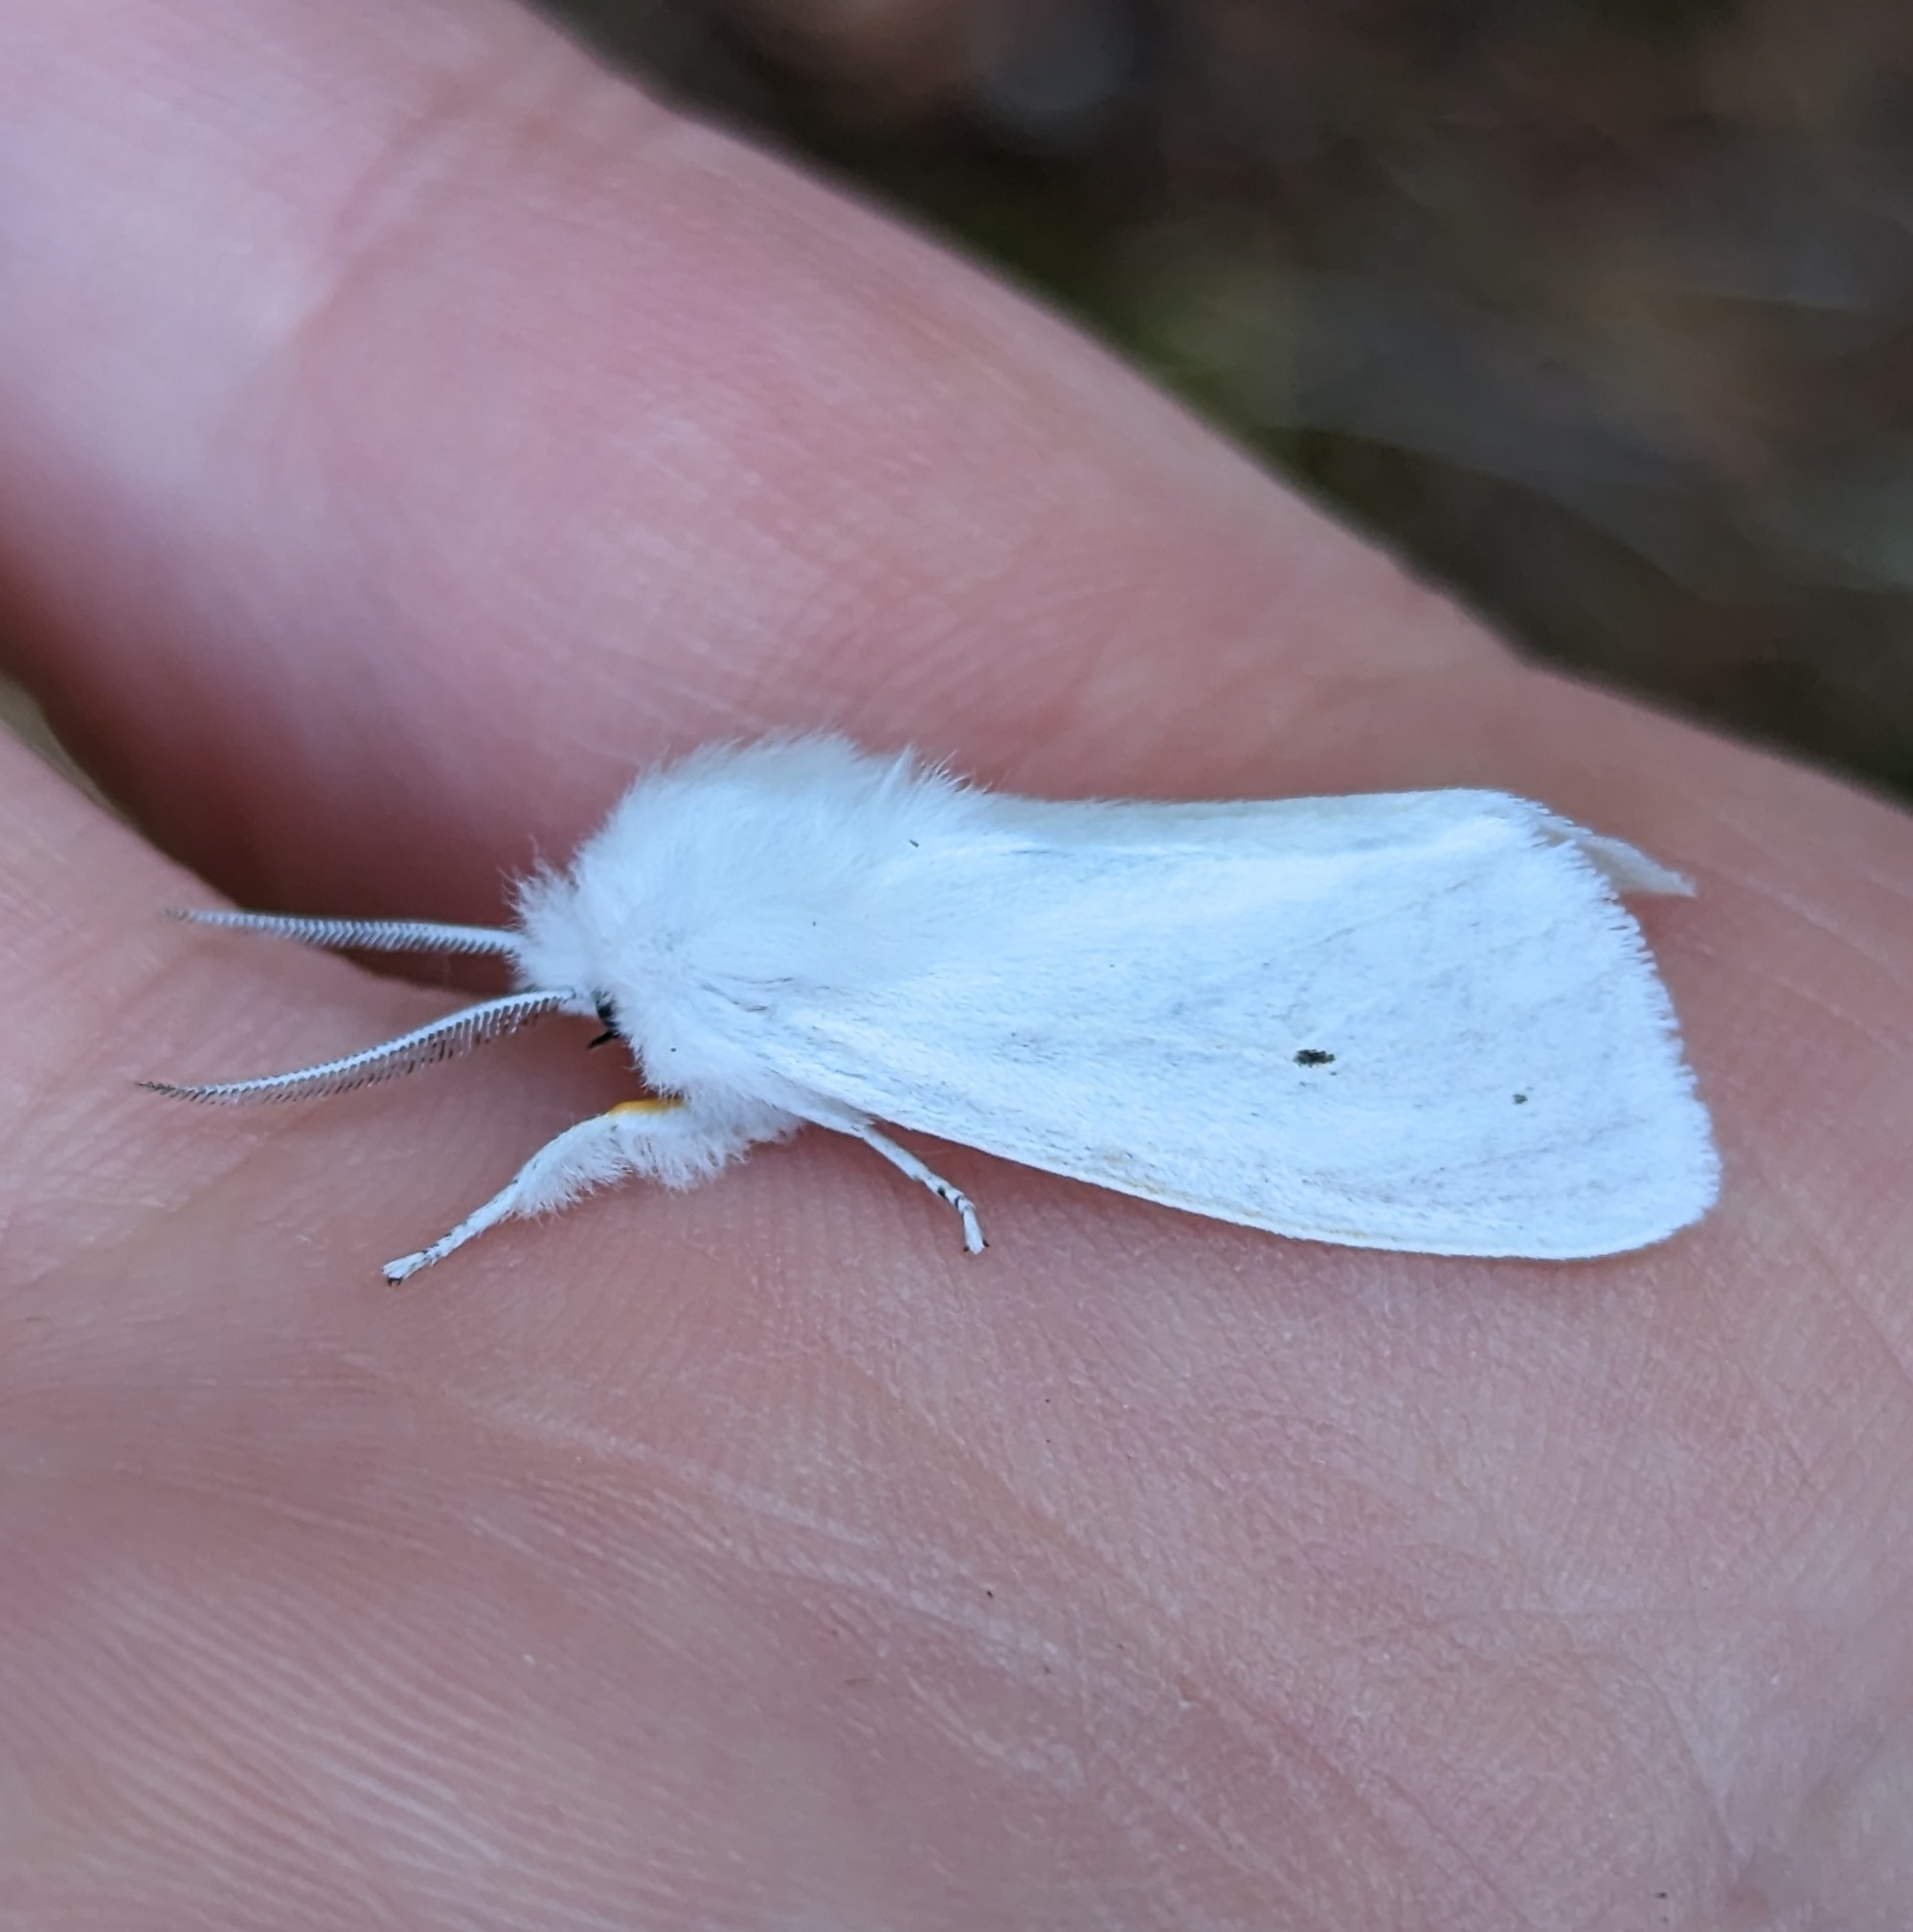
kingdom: Animalia
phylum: Arthropoda
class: Insecta
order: Lepidoptera
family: Erebidae
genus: Spilosoma
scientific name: Spilosoma virginica
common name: Virginia tiger moth
